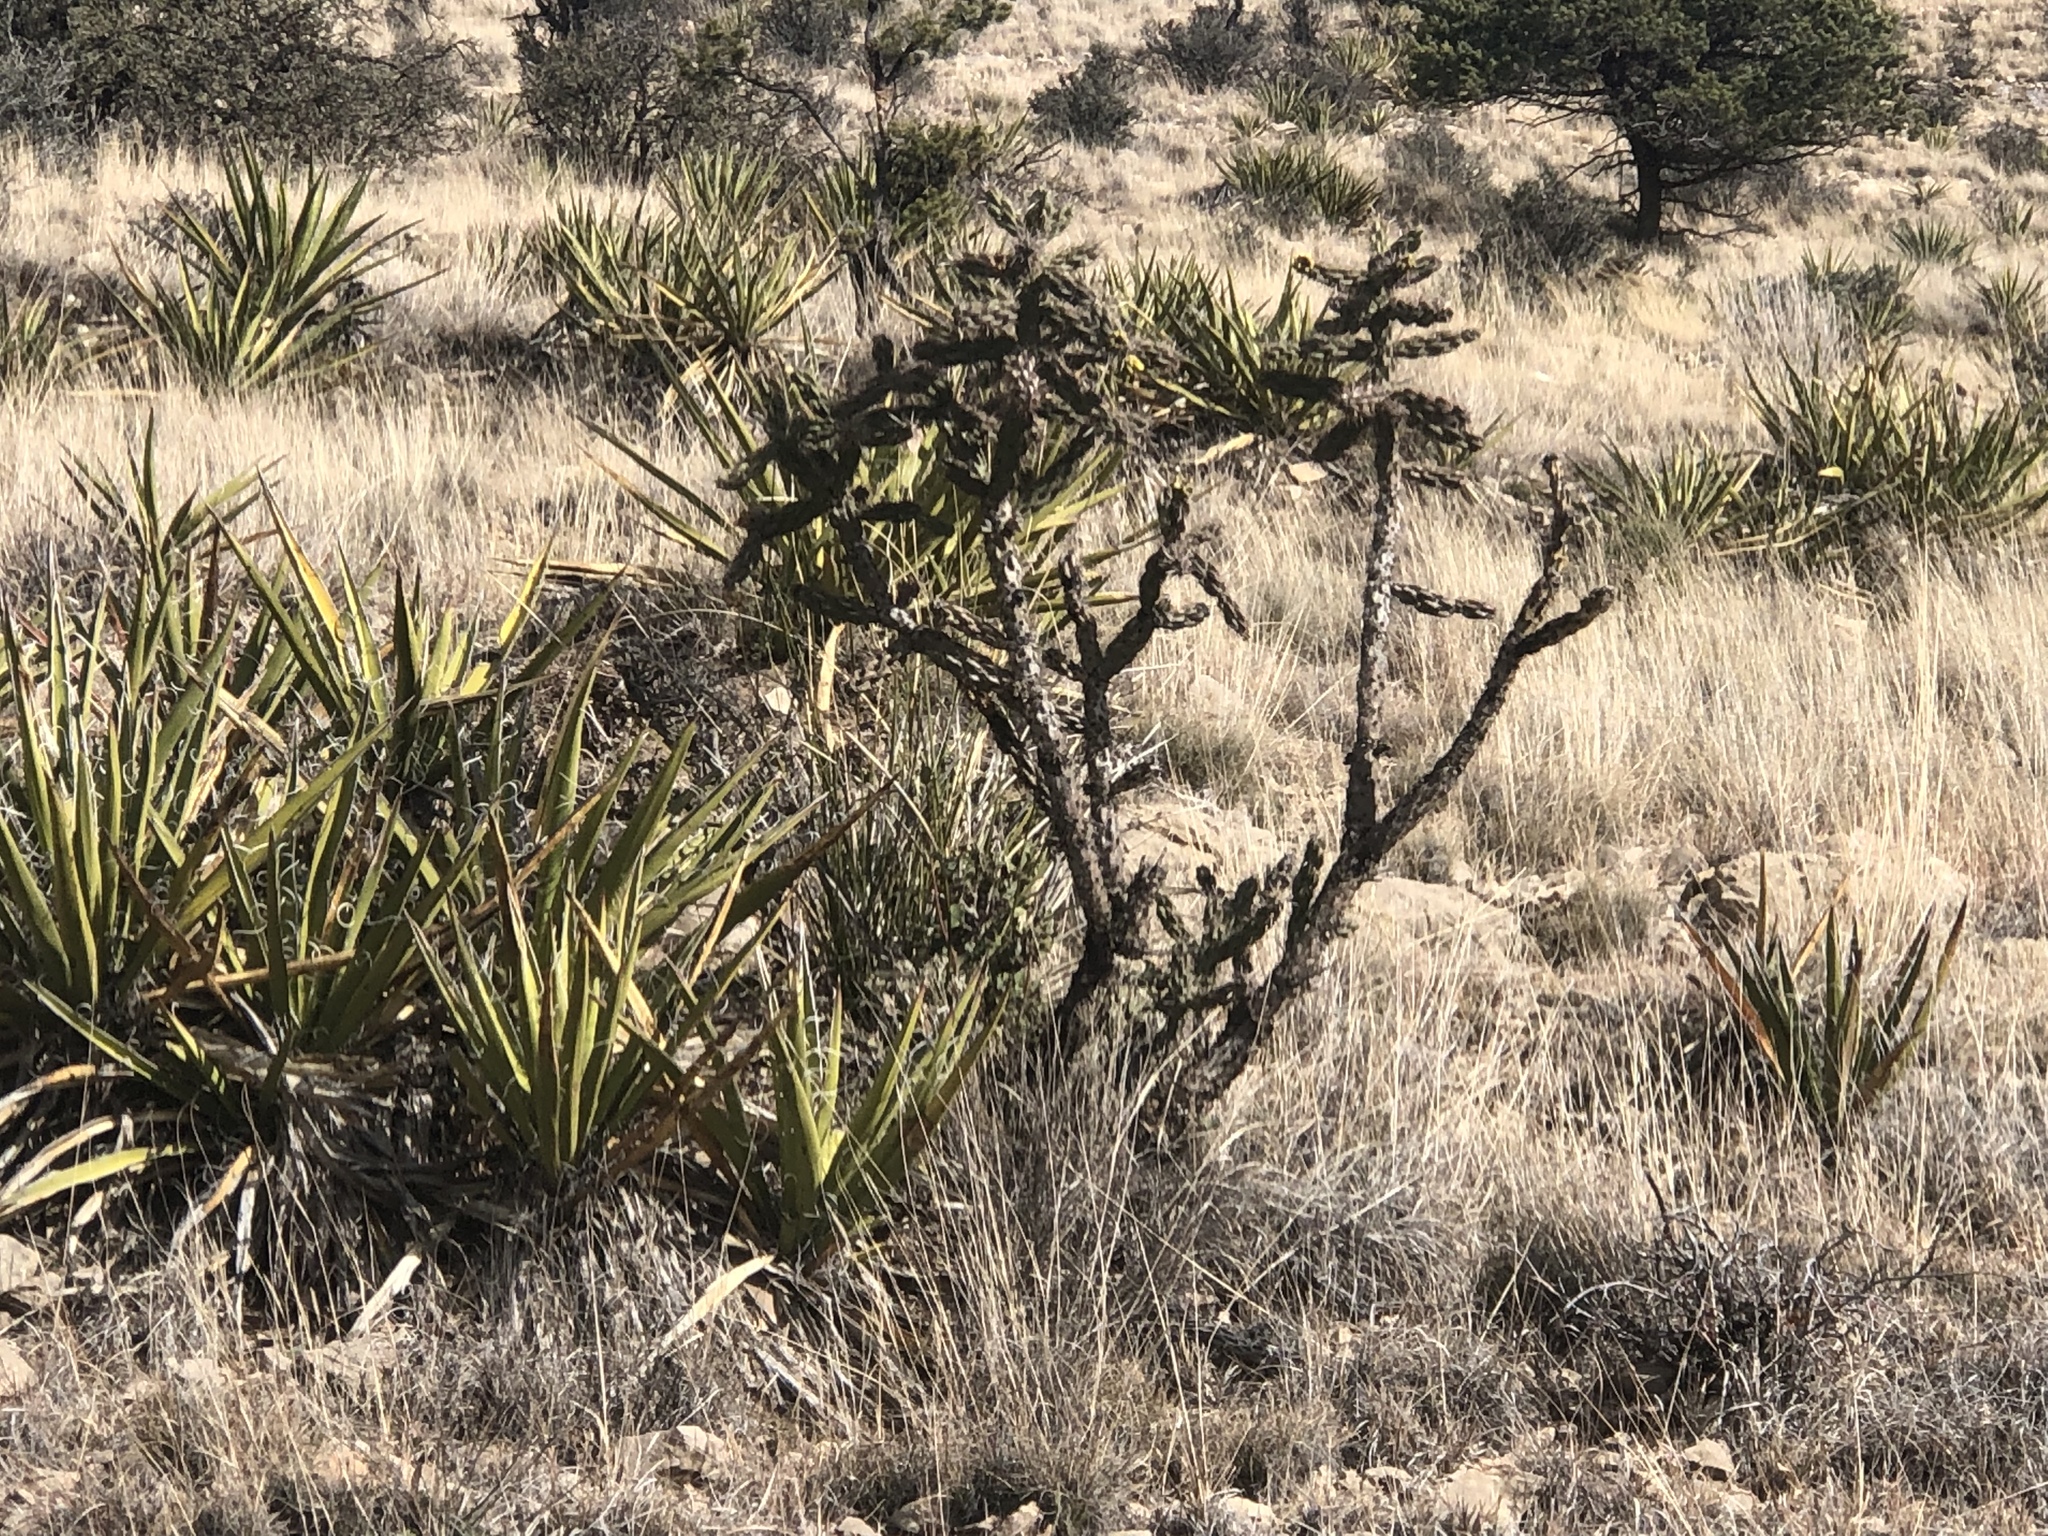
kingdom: Plantae
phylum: Tracheophyta
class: Magnoliopsida
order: Caryophyllales
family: Cactaceae
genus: Cylindropuntia
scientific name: Cylindropuntia imbricata
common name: Candelabrum cactus
